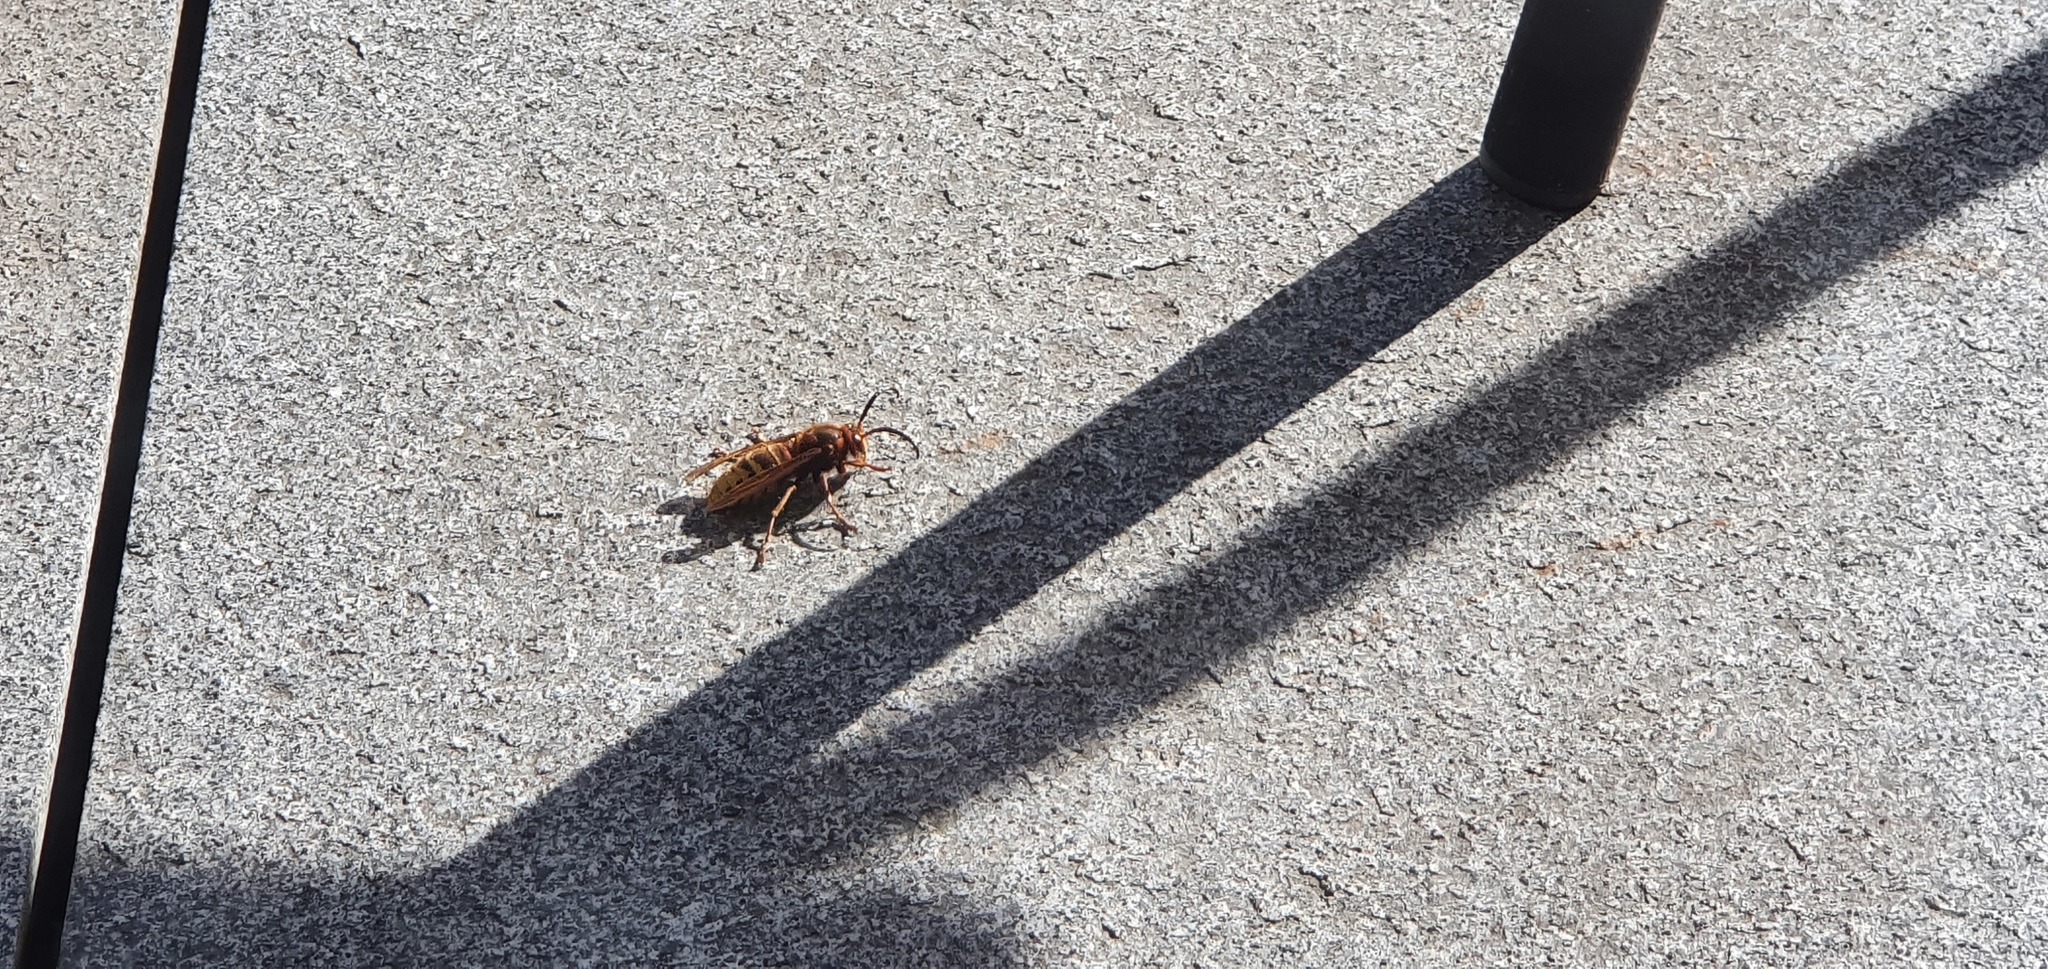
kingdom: Animalia
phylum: Arthropoda
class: Insecta
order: Hymenoptera
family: Vespidae
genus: Vespa
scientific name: Vespa crabro
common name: Hornet
